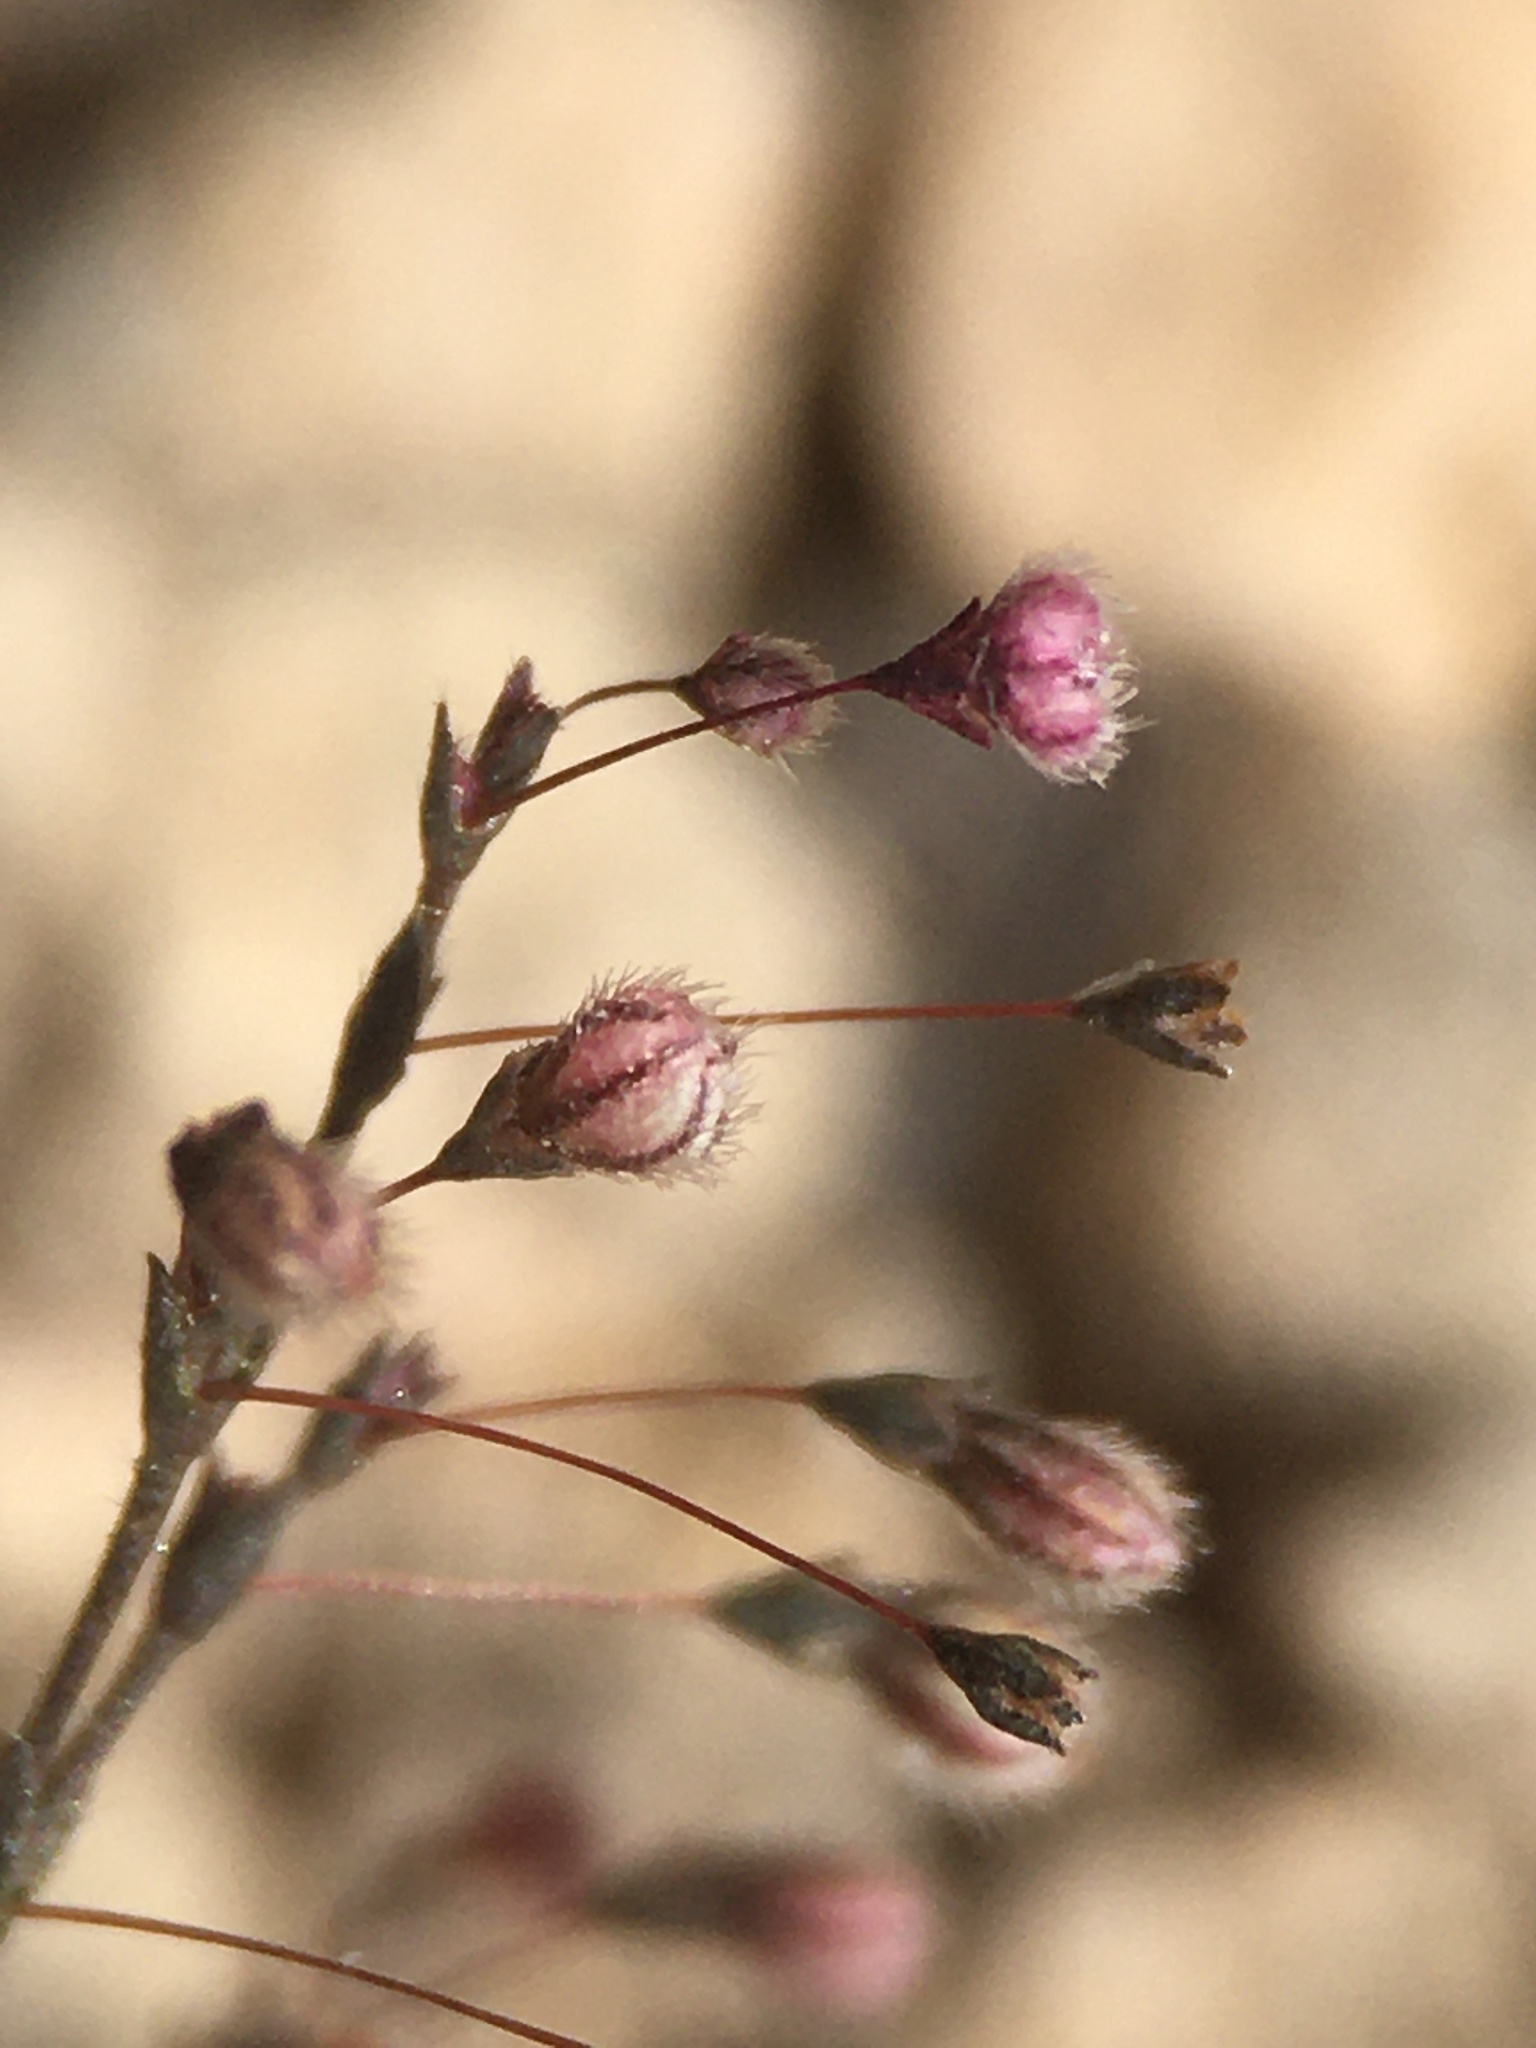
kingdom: Plantae
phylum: Tracheophyta
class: Magnoliopsida
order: Caryophyllales
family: Polygonaceae
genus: Eriogonum
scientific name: Eriogonum spergulinum
